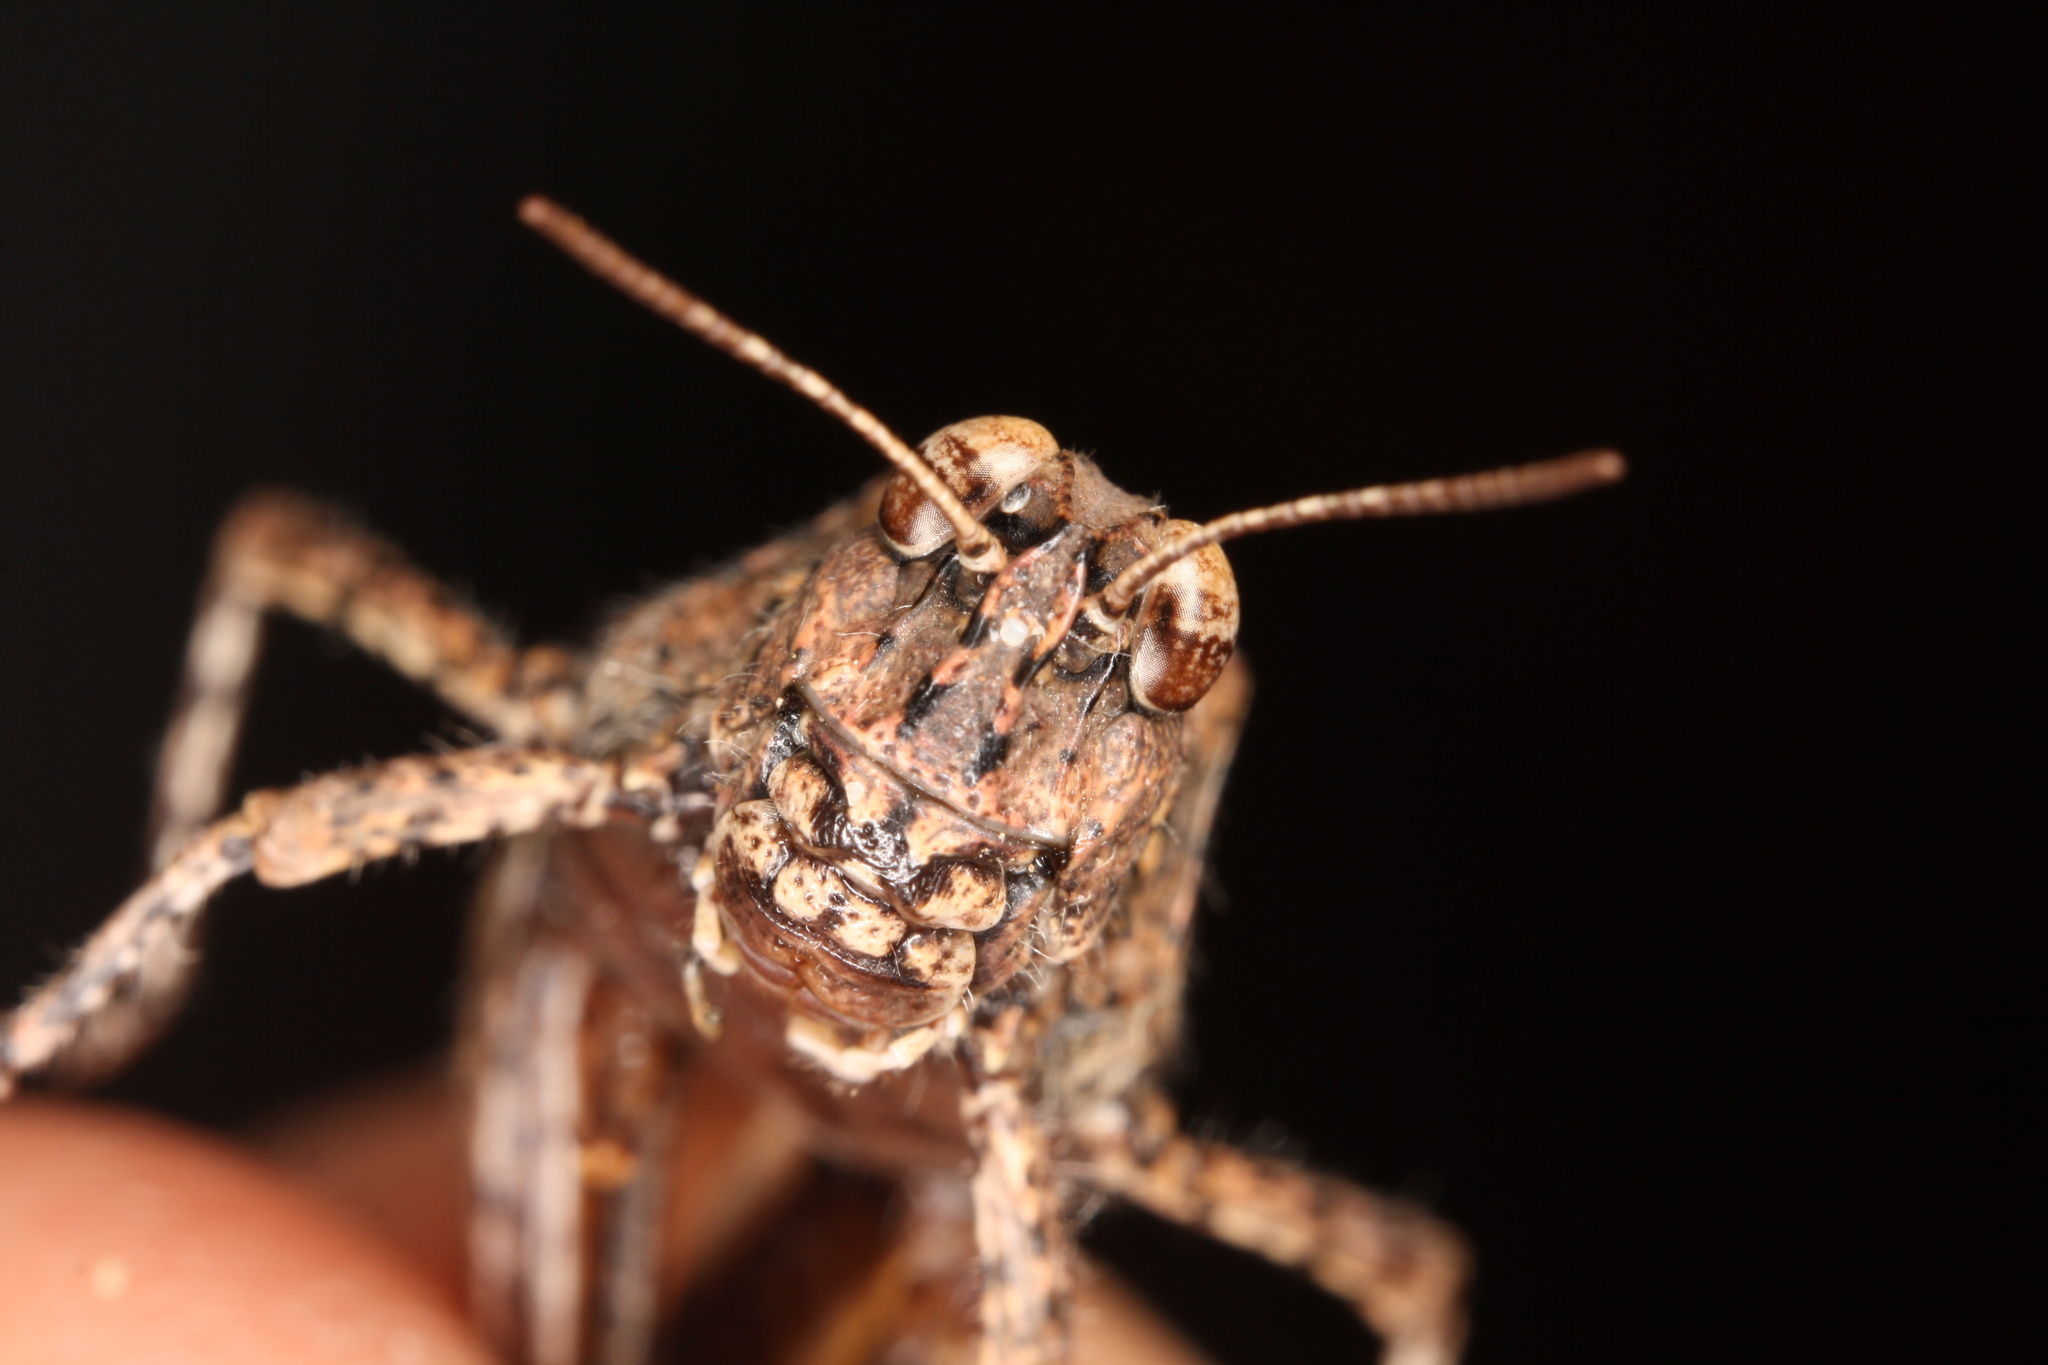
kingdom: Animalia
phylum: Arthropoda
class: Insecta
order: Orthoptera
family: Acrididae
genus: Acrotylus
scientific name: Acrotylus insubricus
